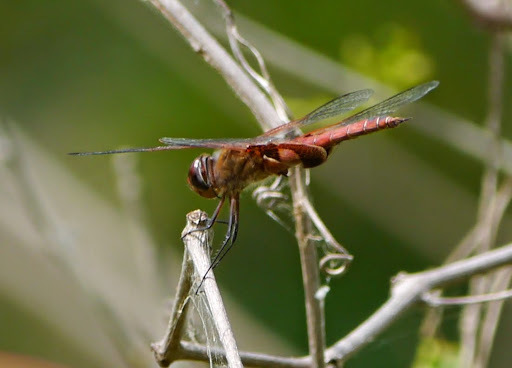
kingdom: Animalia
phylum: Arthropoda
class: Insecta
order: Odonata
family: Libellulidae
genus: Tramea
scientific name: Tramea onusta
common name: Red saddlebags
